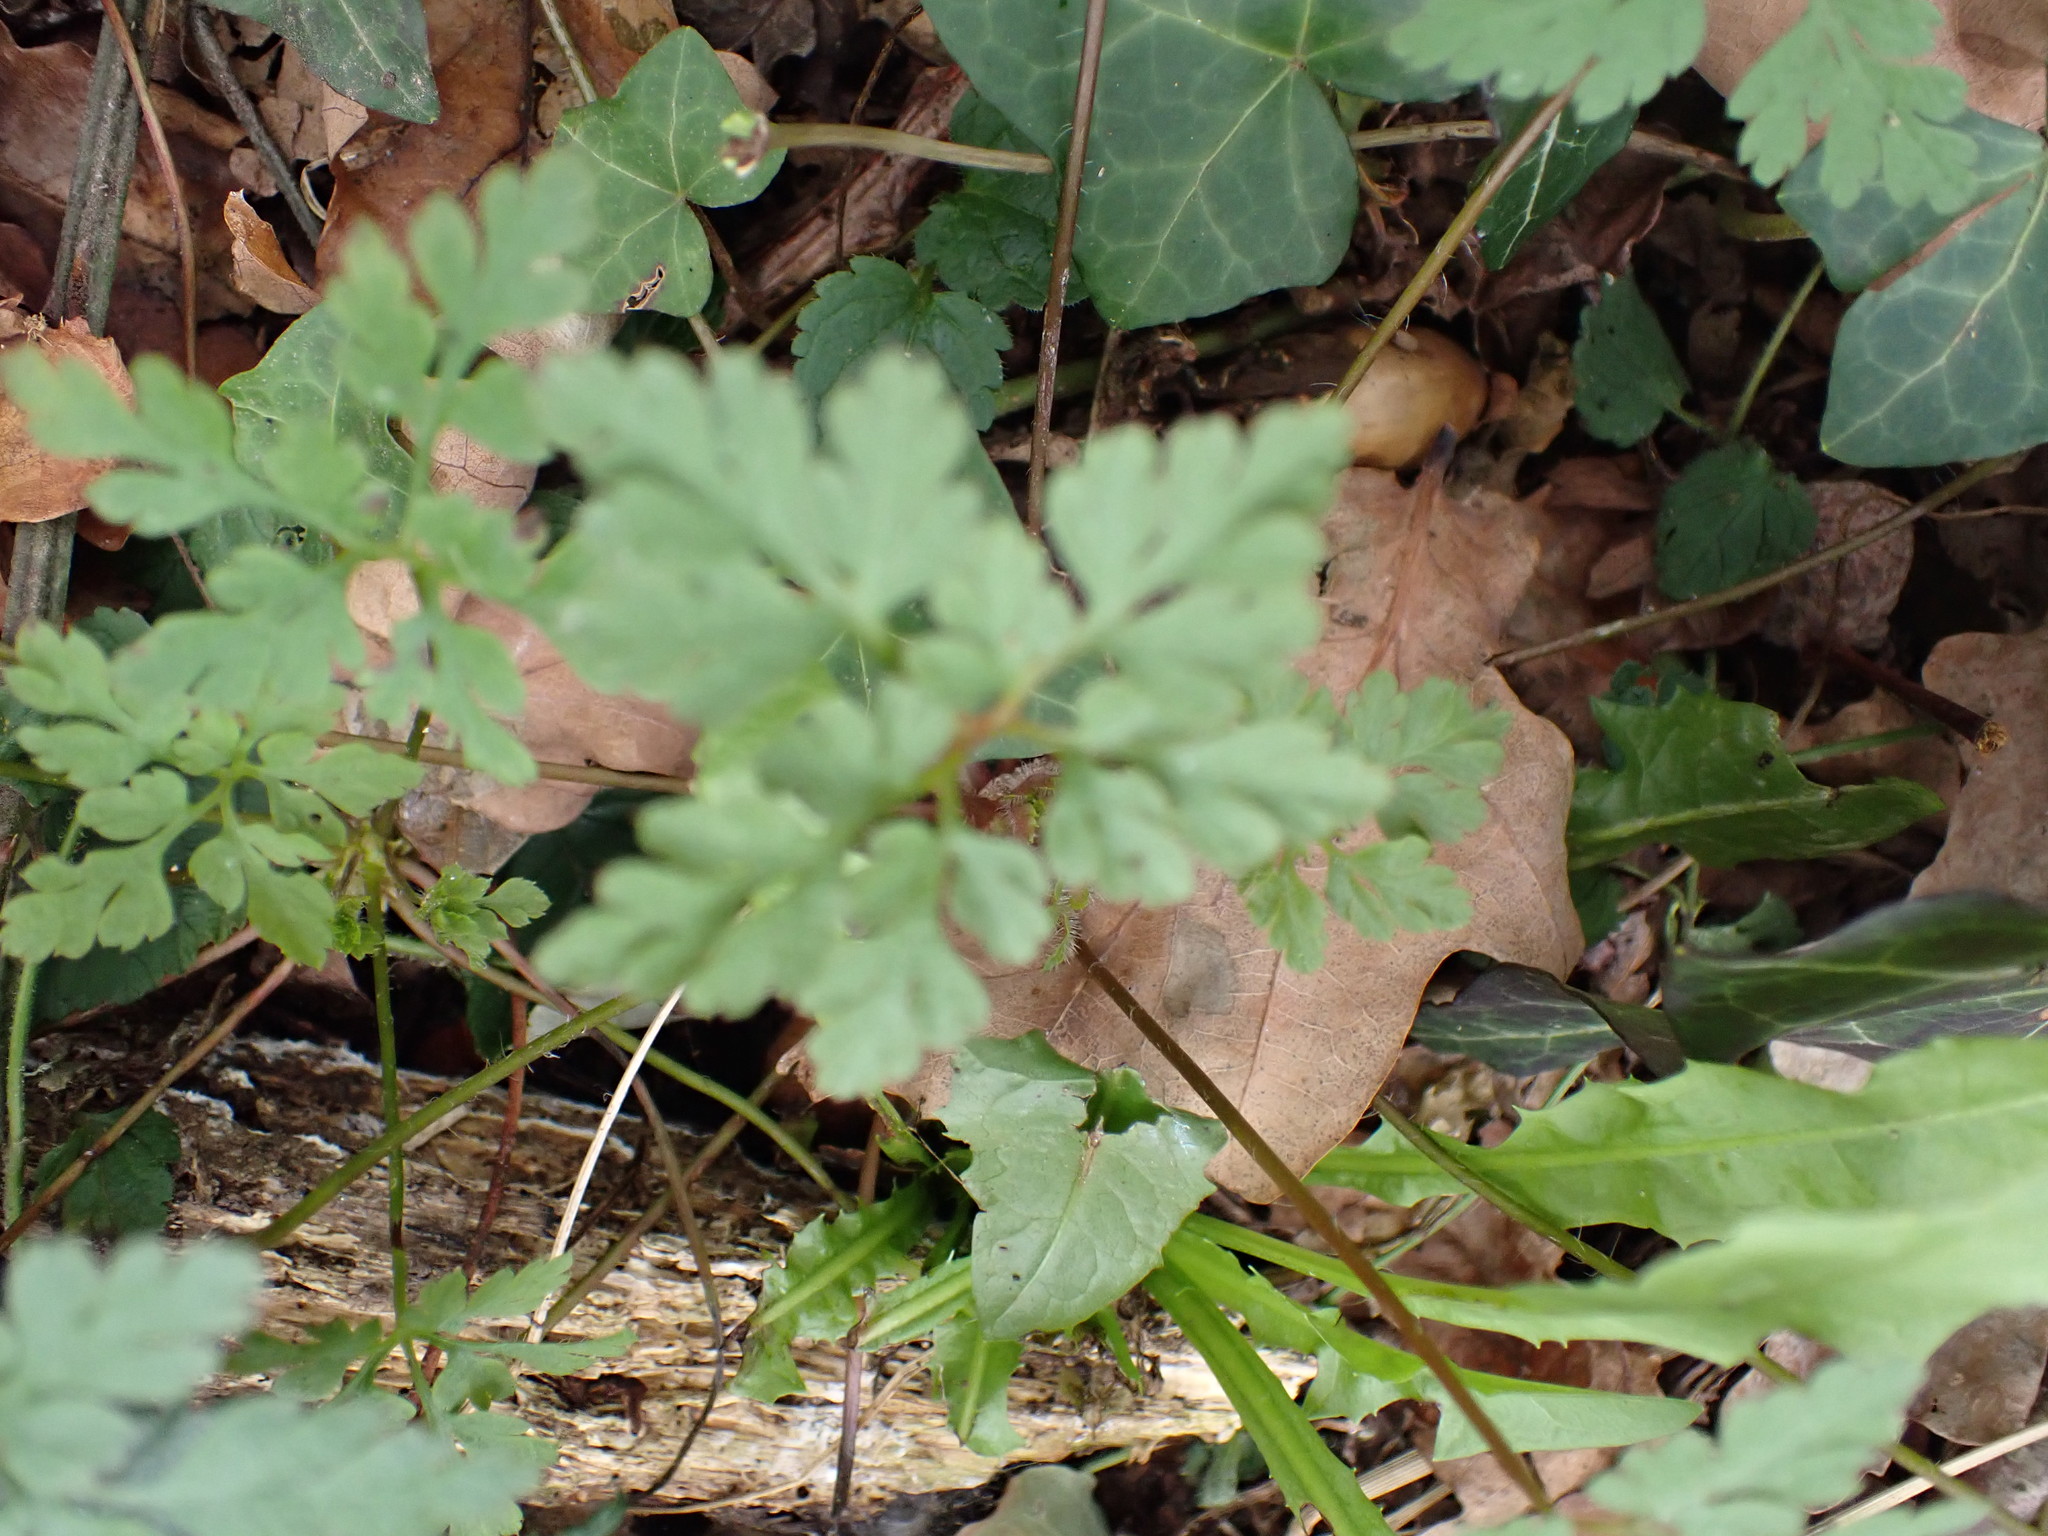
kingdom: Plantae
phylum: Tracheophyta
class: Magnoliopsida
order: Geraniales
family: Geraniaceae
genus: Geranium
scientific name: Geranium robertianum
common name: Herb-robert
